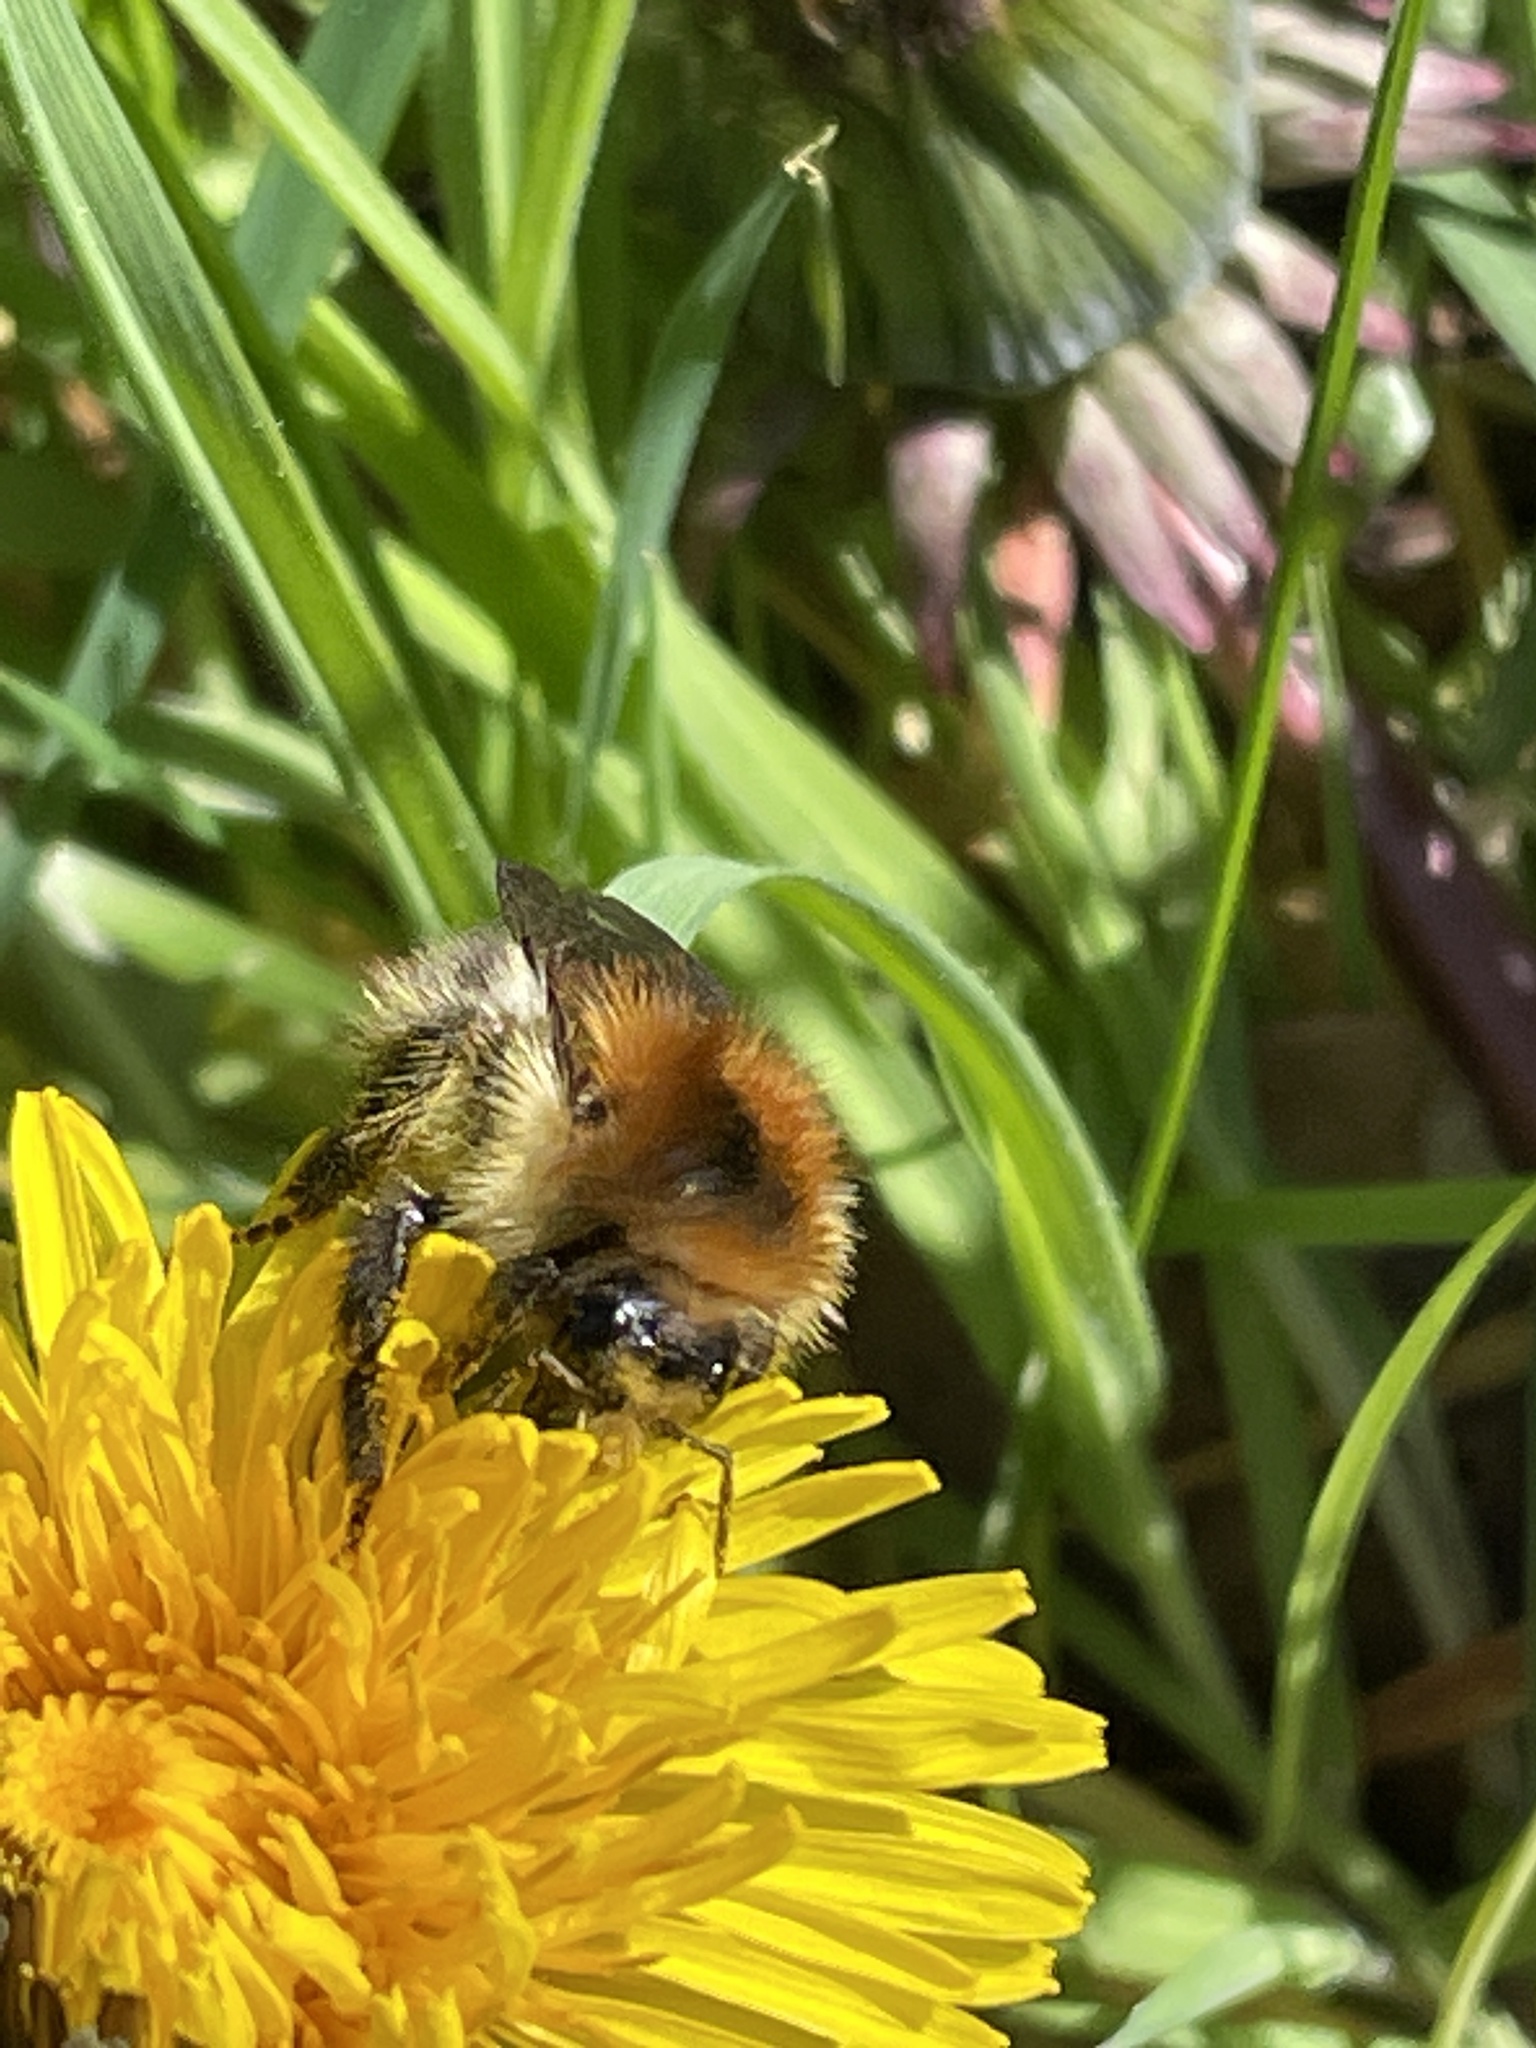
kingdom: Animalia
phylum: Arthropoda
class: Insecta
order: Hymenoptera
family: Apidae
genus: Bombus
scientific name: Bombus pascuorum
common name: Common carder bee
